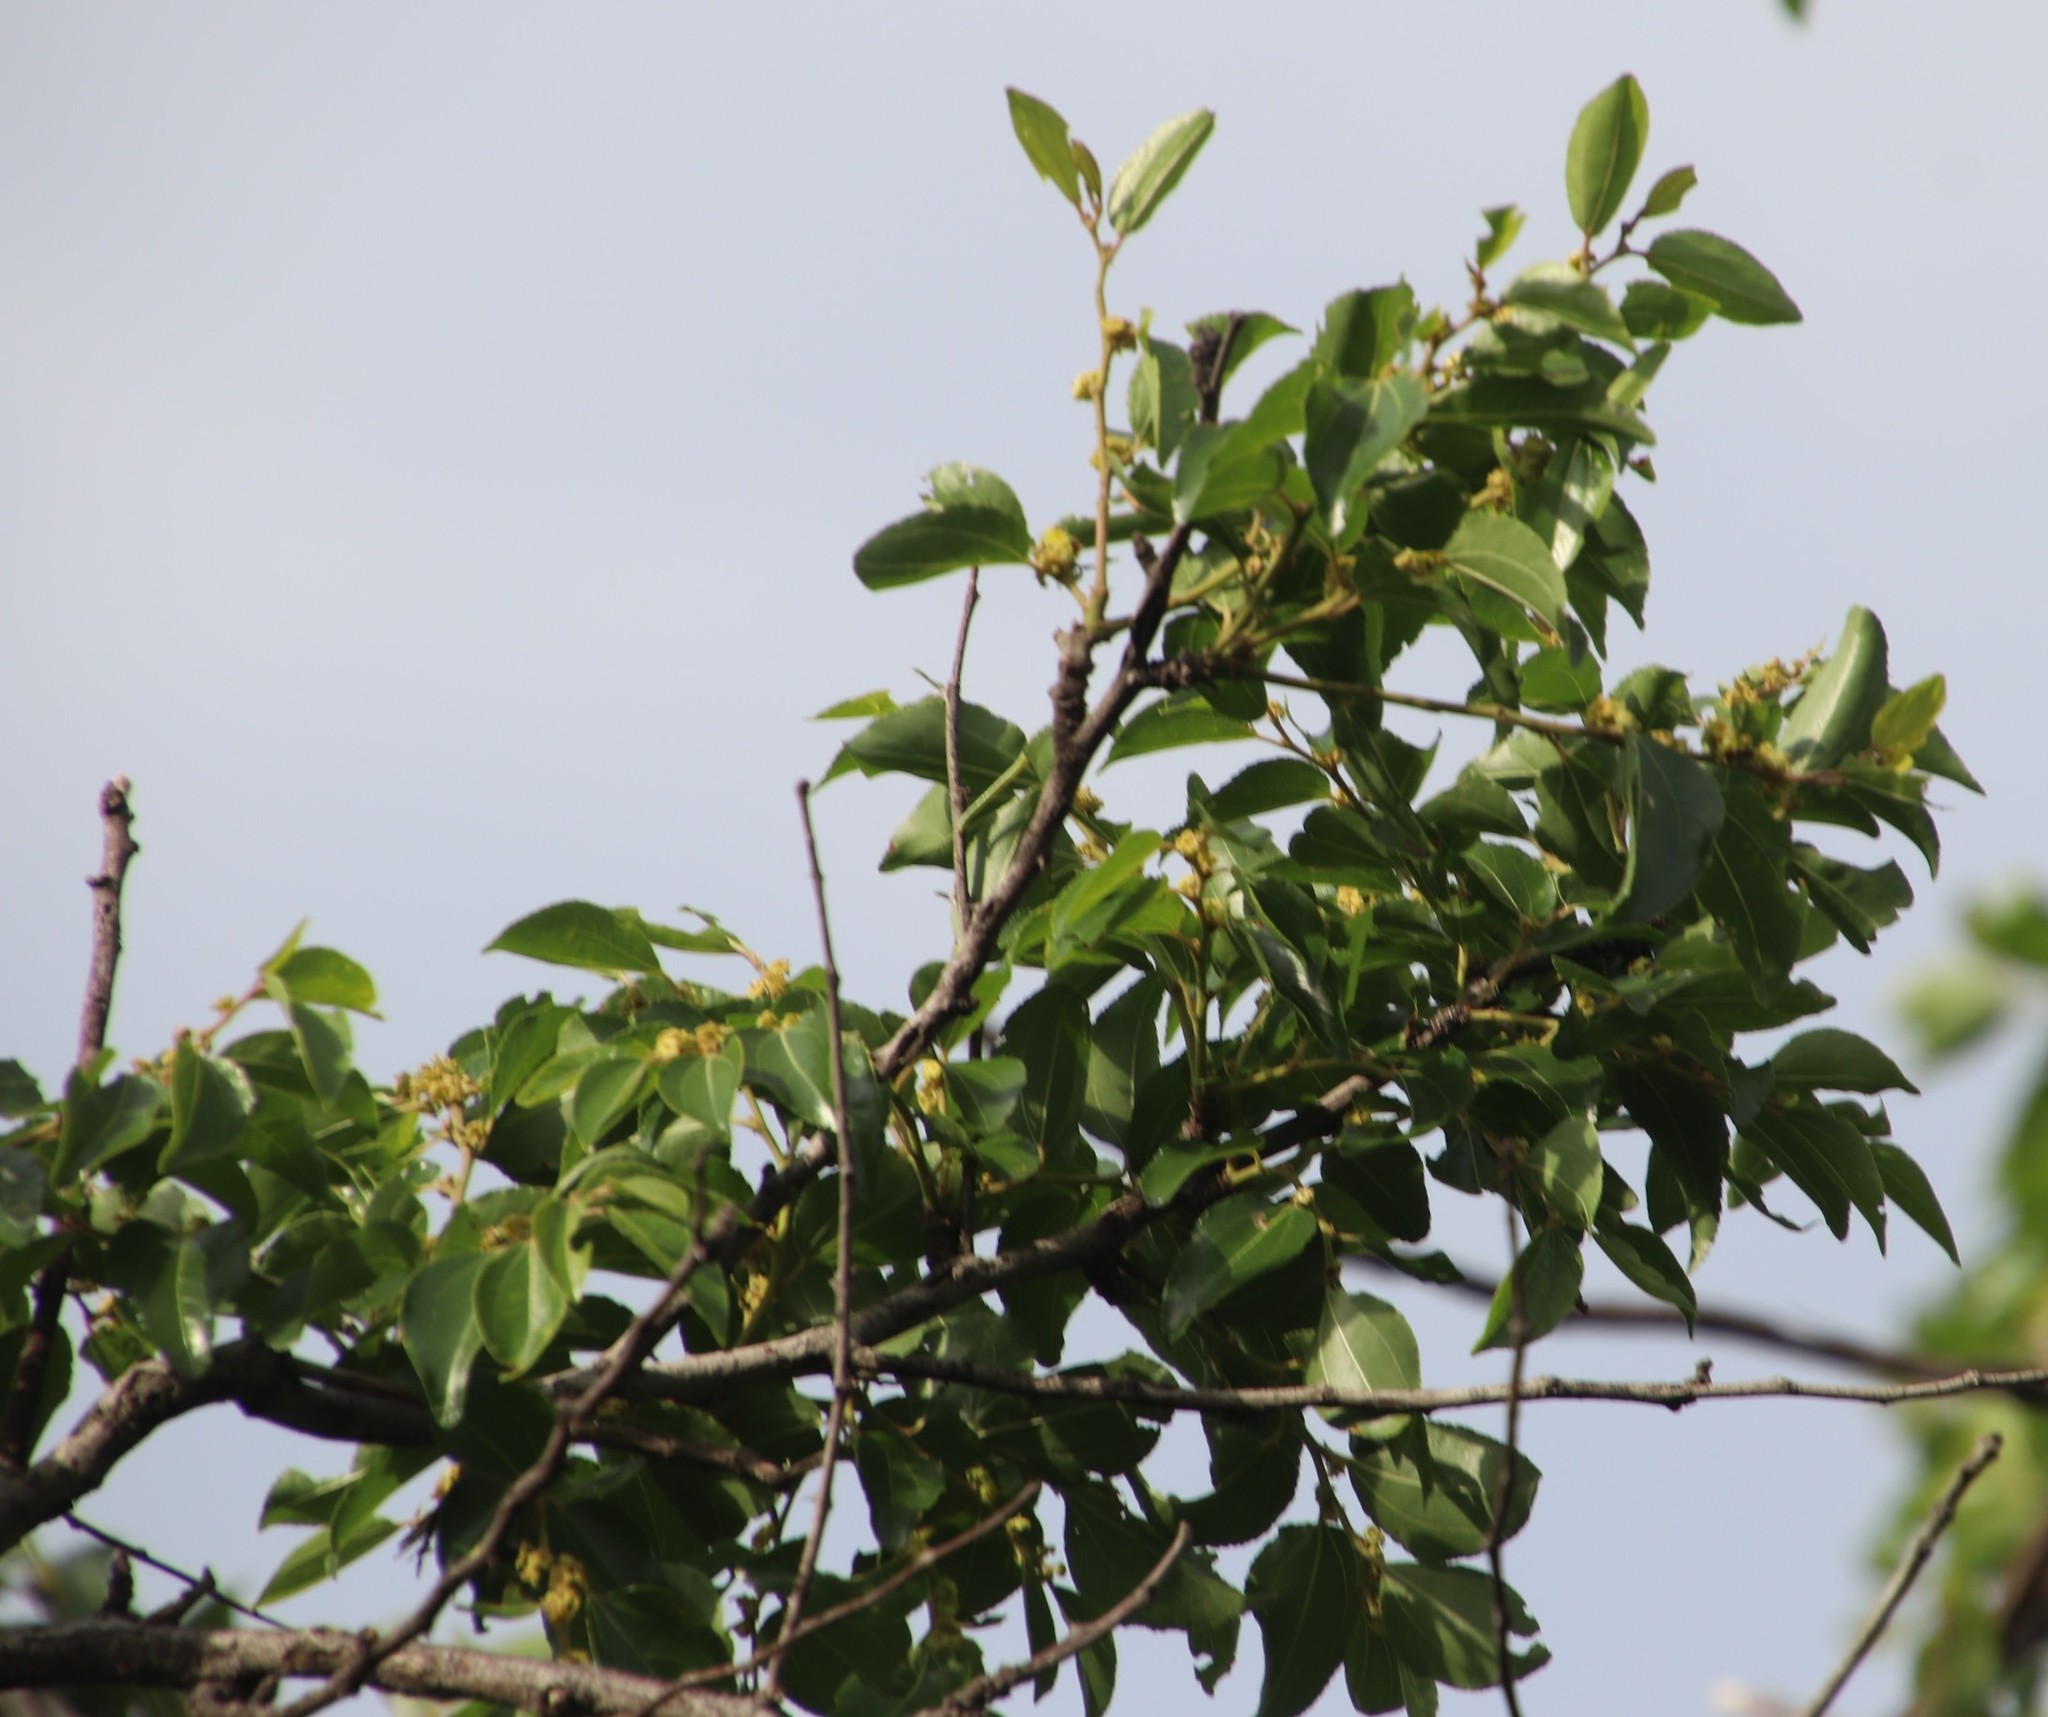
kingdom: Plantae
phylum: Tracheophyta
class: Magnoliopsida
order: Rosales
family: Rhamnaceae
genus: Ziziphus
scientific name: Ziziphus mucronata
